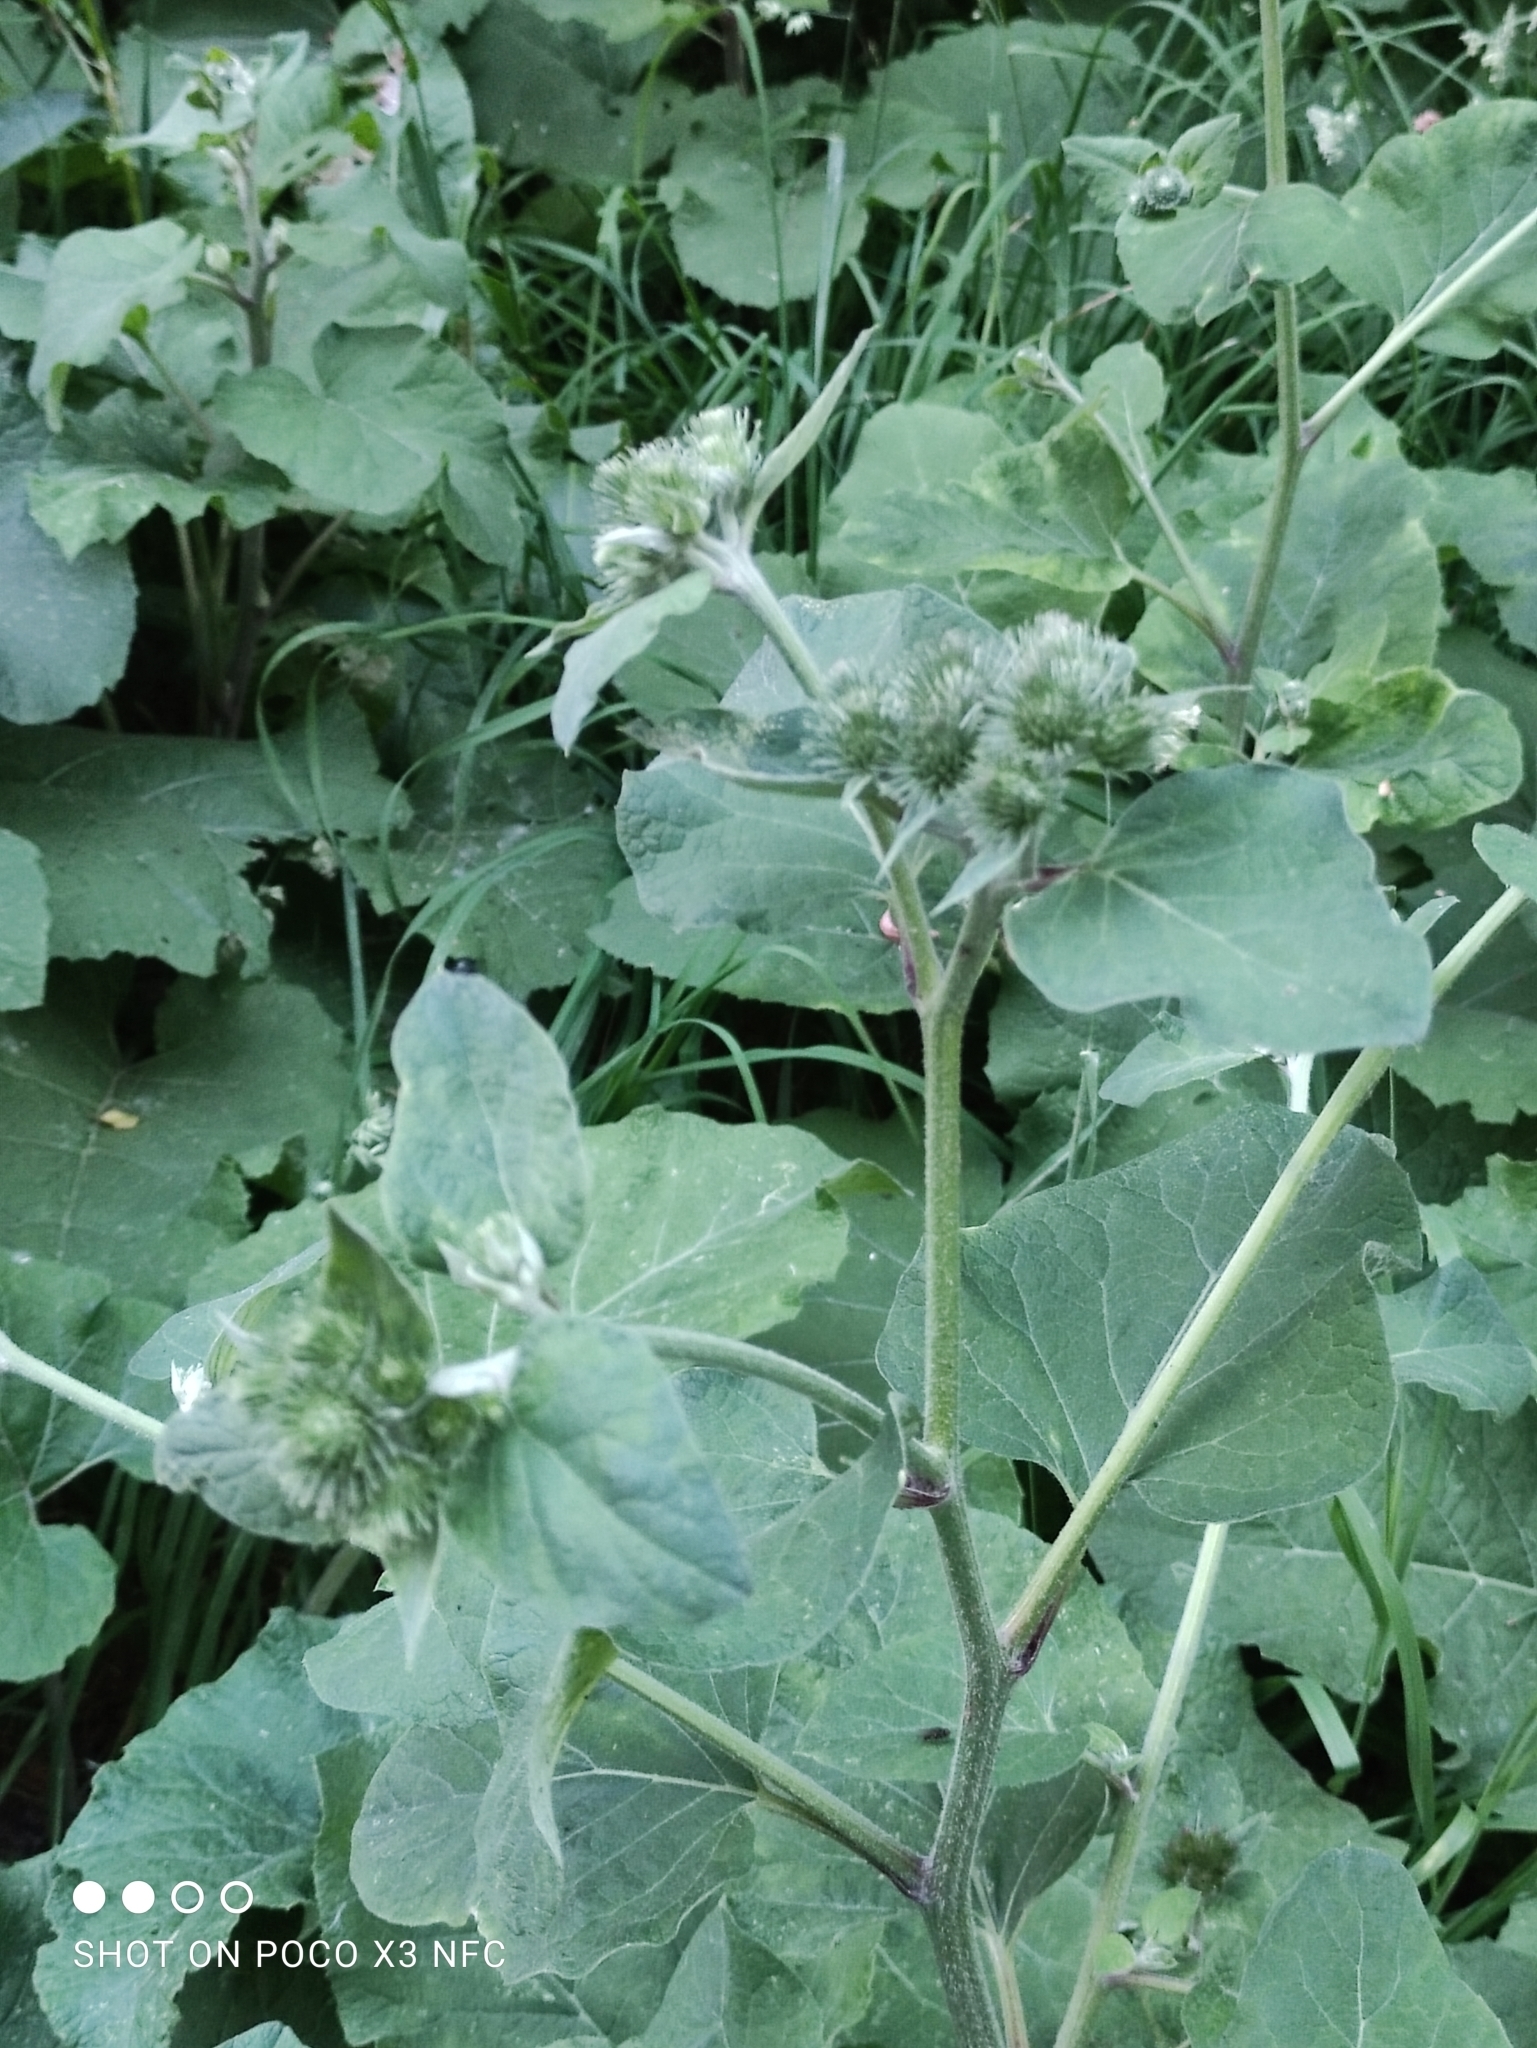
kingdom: Plantae
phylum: Tracheophyta
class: Magnoliopsida
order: Asterales
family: Asteraceae
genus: Arctium
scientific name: Arctium lappa
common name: Greater burdock
